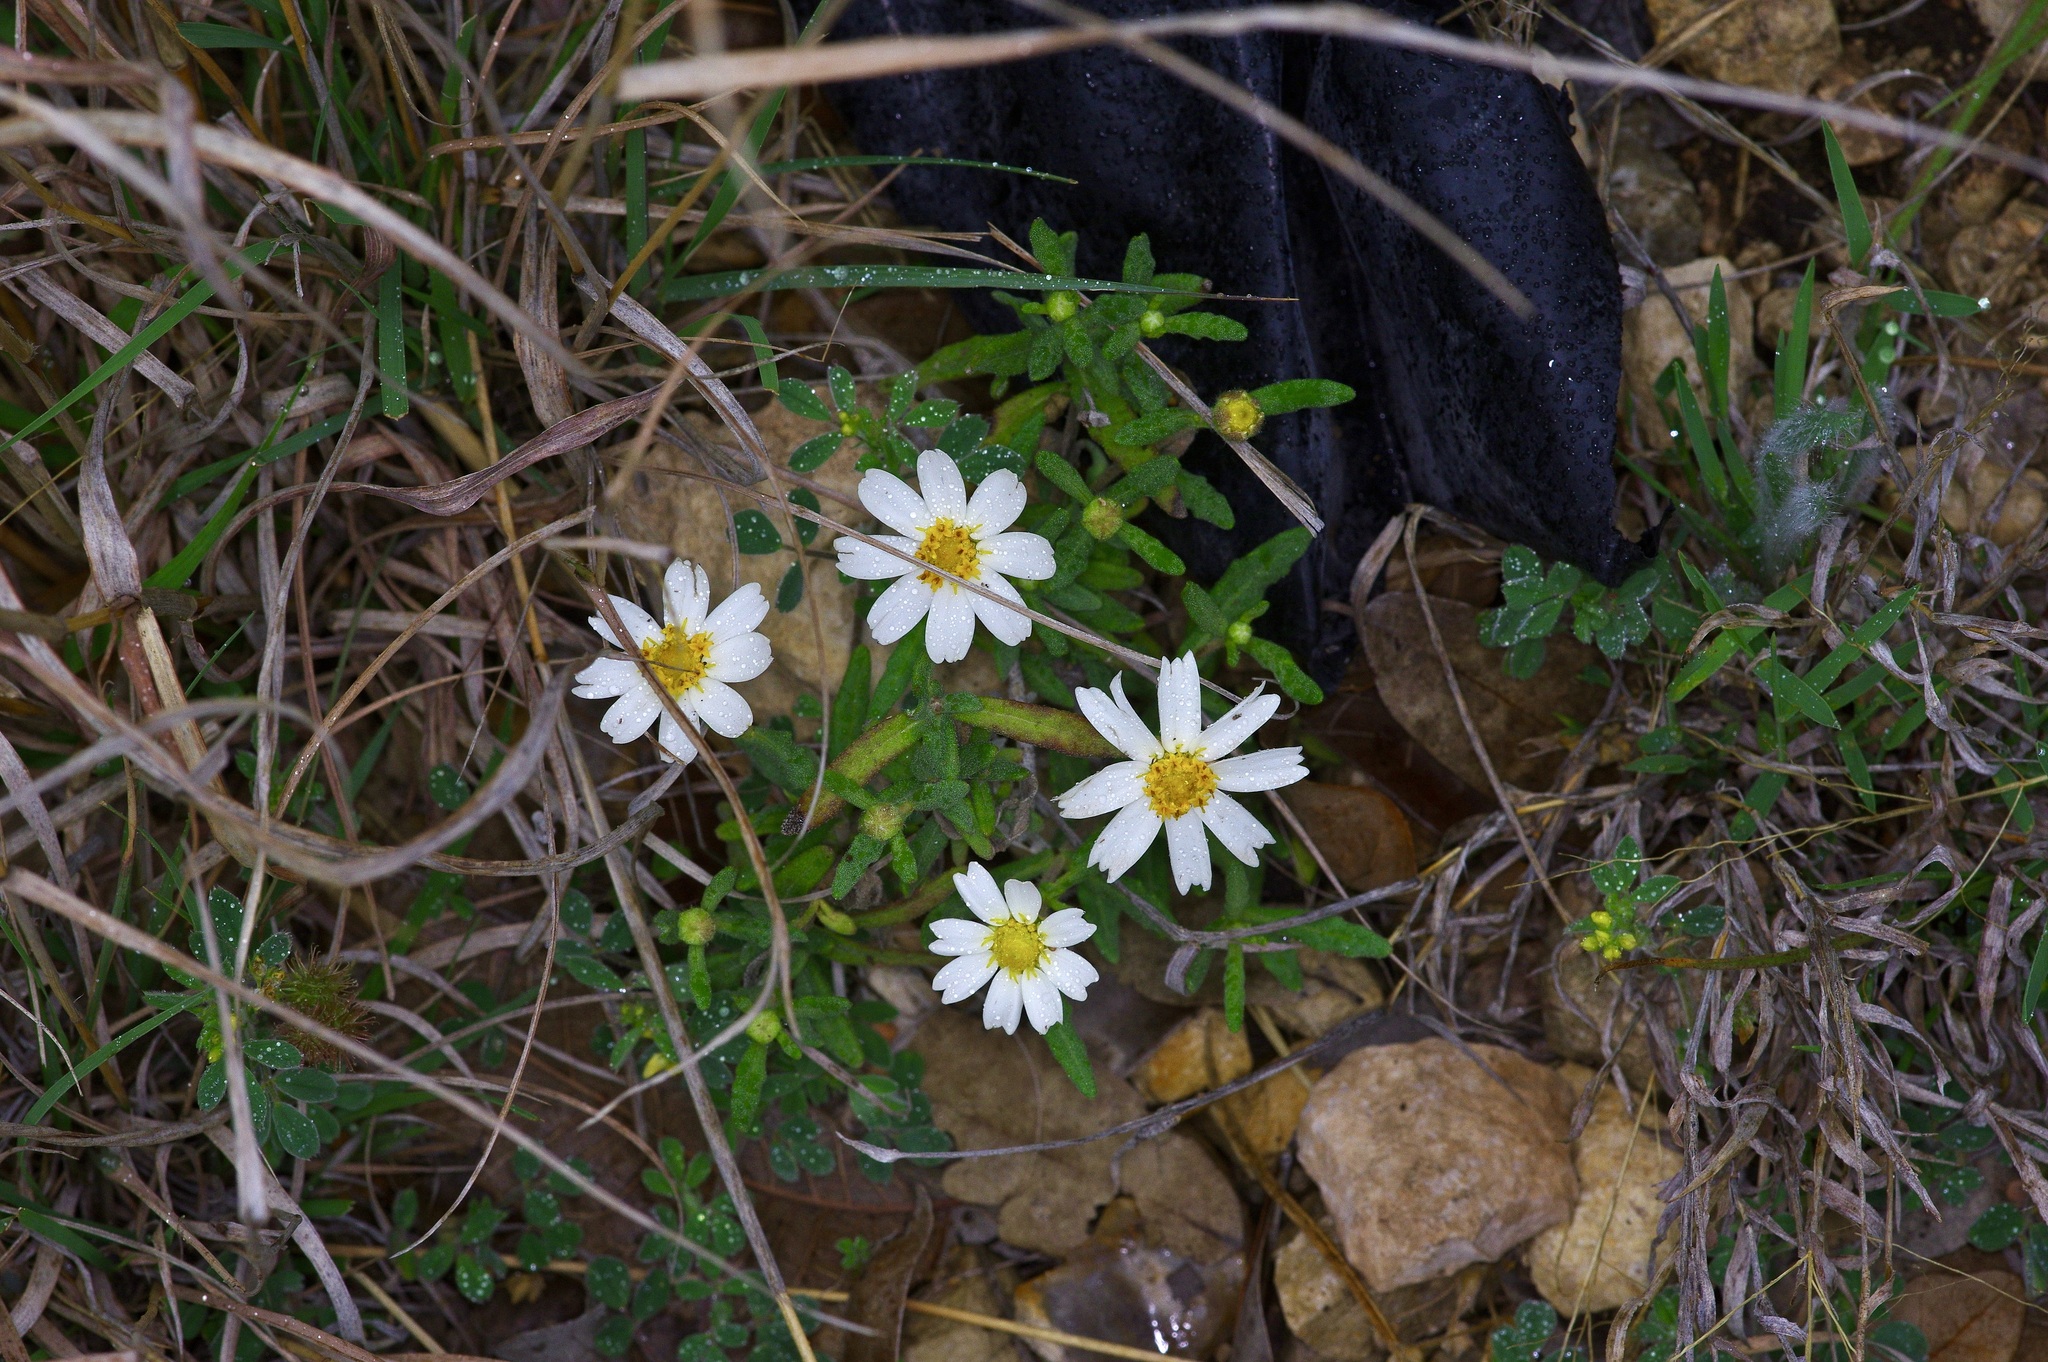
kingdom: Plantae
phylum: Tracheophyta
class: Magnoliopsida
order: Asterales
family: Asteraceae
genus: Melampodium
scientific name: Melampodium leucanthum
